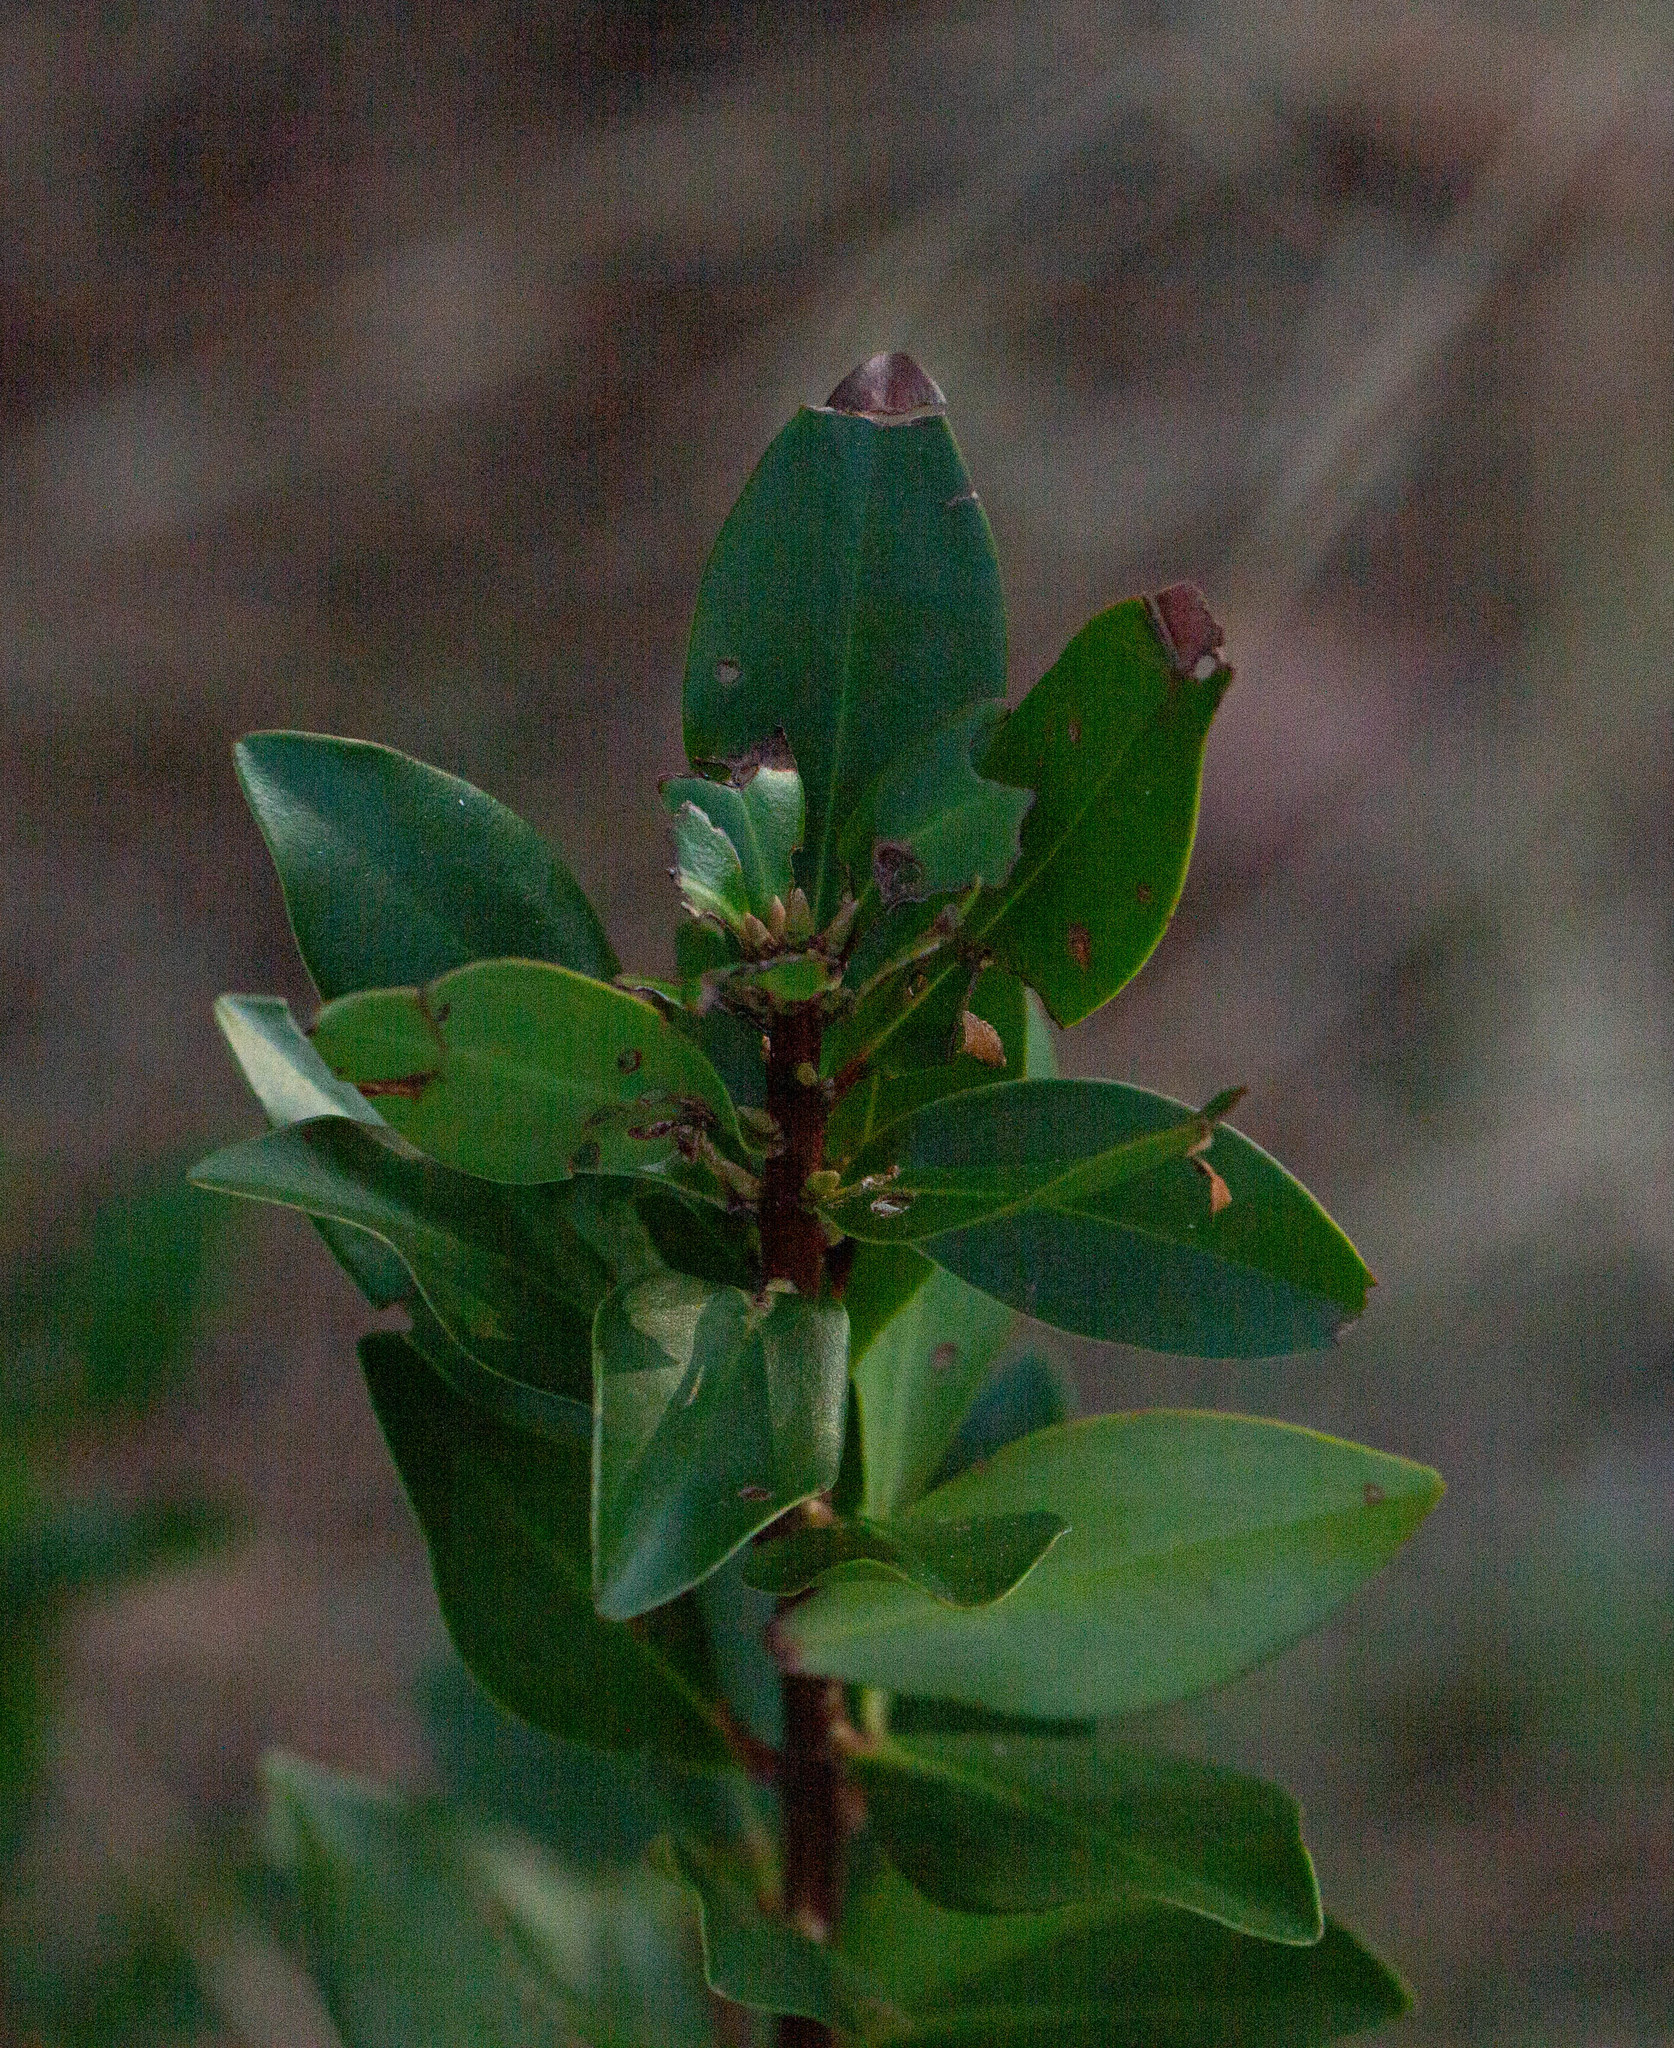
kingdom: Plantae
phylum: Tracheophyta
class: Magnoliopsida
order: Ericales
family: Cyrillaceae
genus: Cliftonia
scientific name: Cliftonia monophylla
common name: Titi
